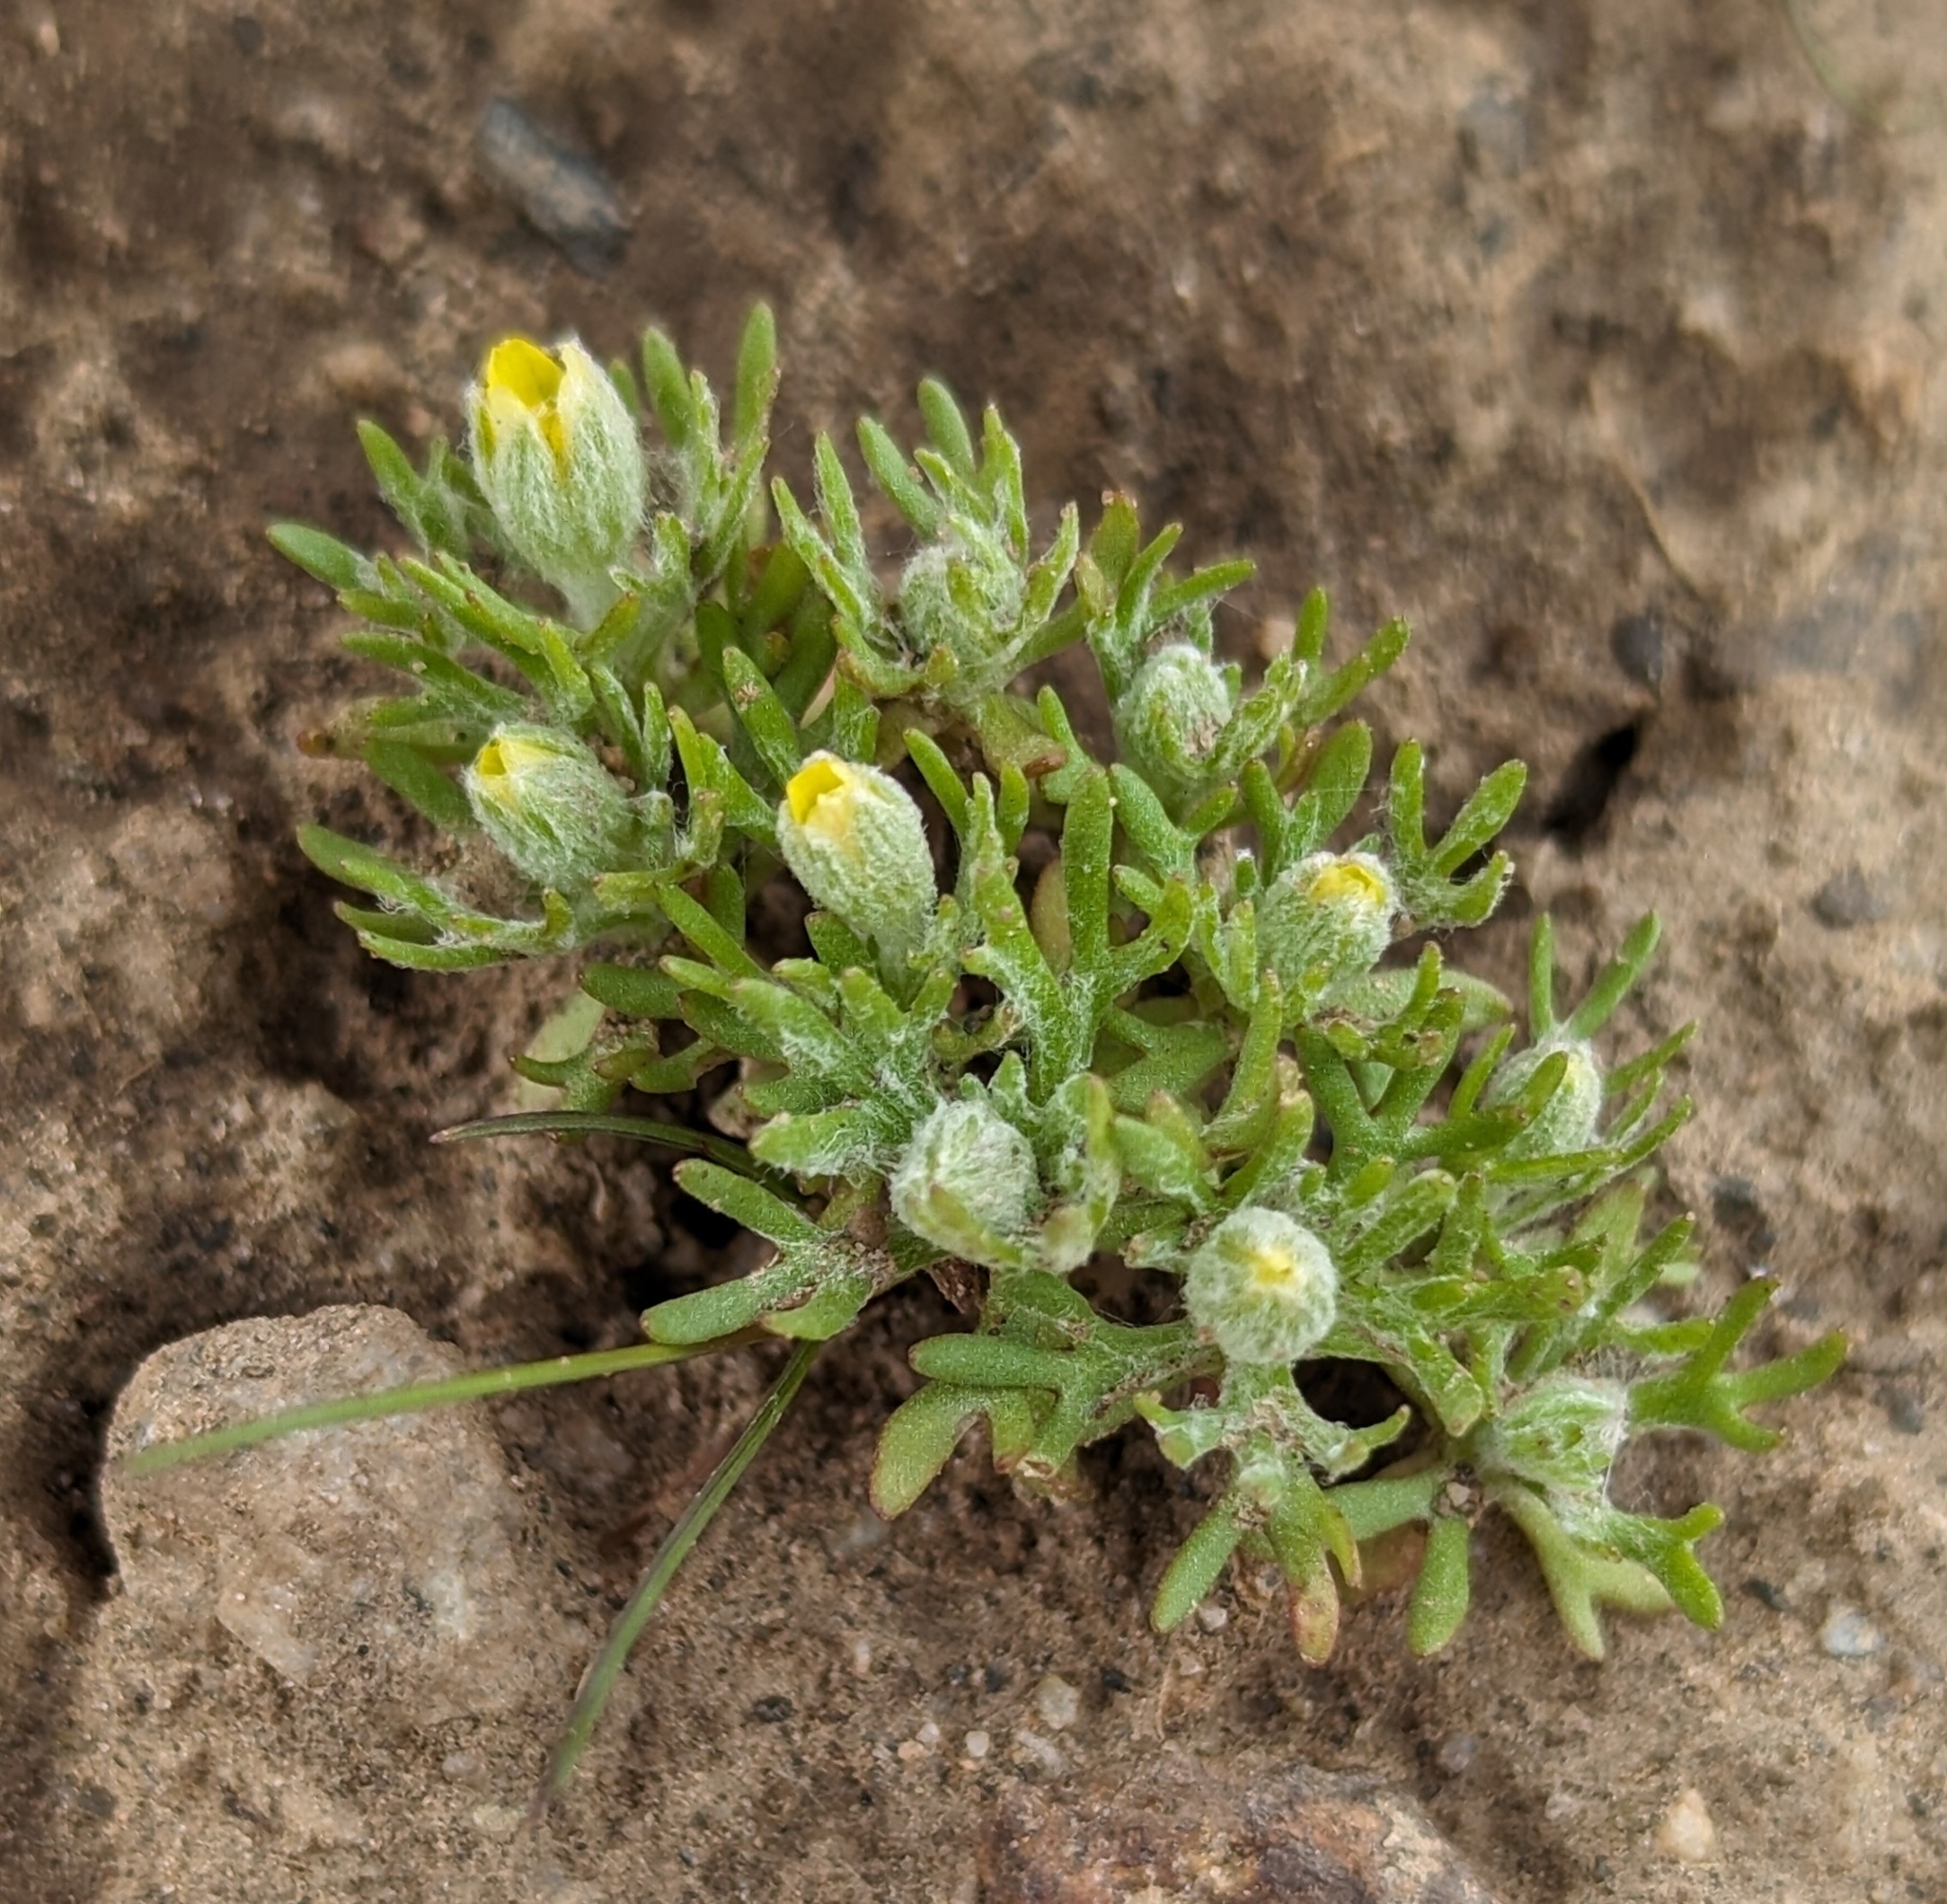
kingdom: Plantae
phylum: Tracheophyta
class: Magnoliopsida
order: Ranunculales
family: Ranunculaceae
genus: Ceratocephala
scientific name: Ceratocephala orthoceras
